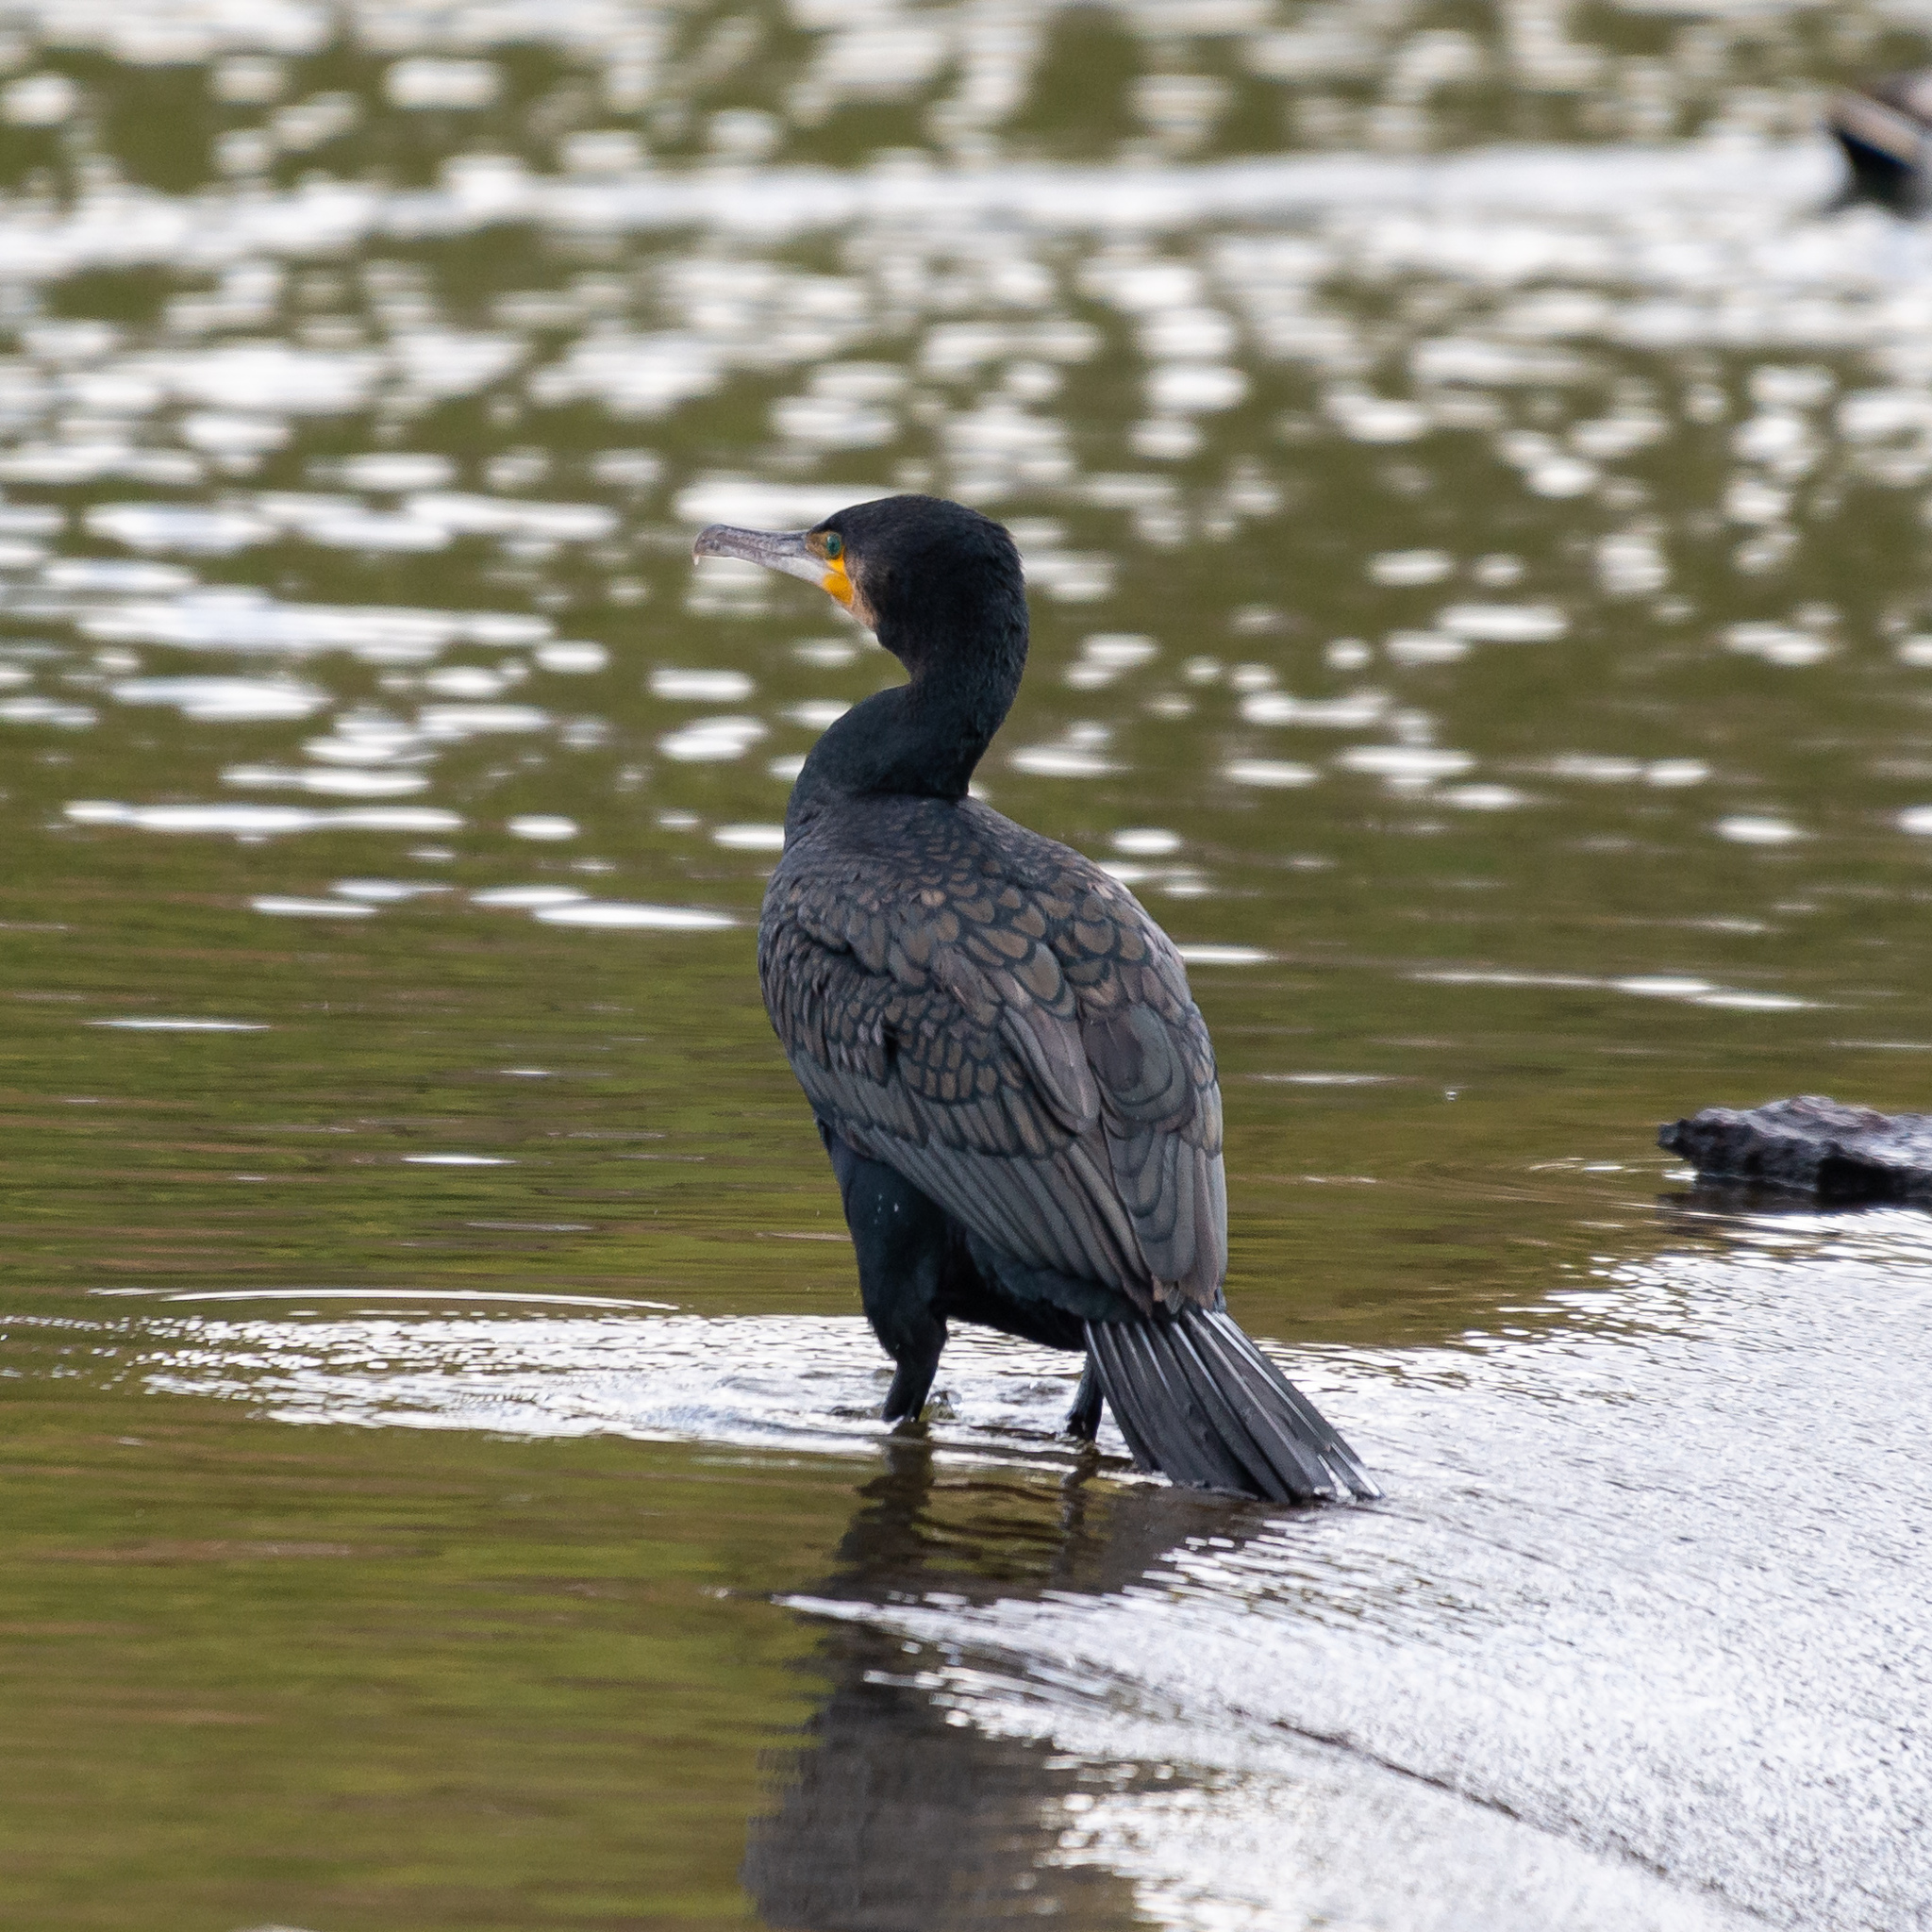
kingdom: Animalia
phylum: Chordata
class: Aves
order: Suliformes
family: Phalacrocoracidae
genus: Phalacrocorax
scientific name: Phalacrocorax carbo
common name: Great cormorant
